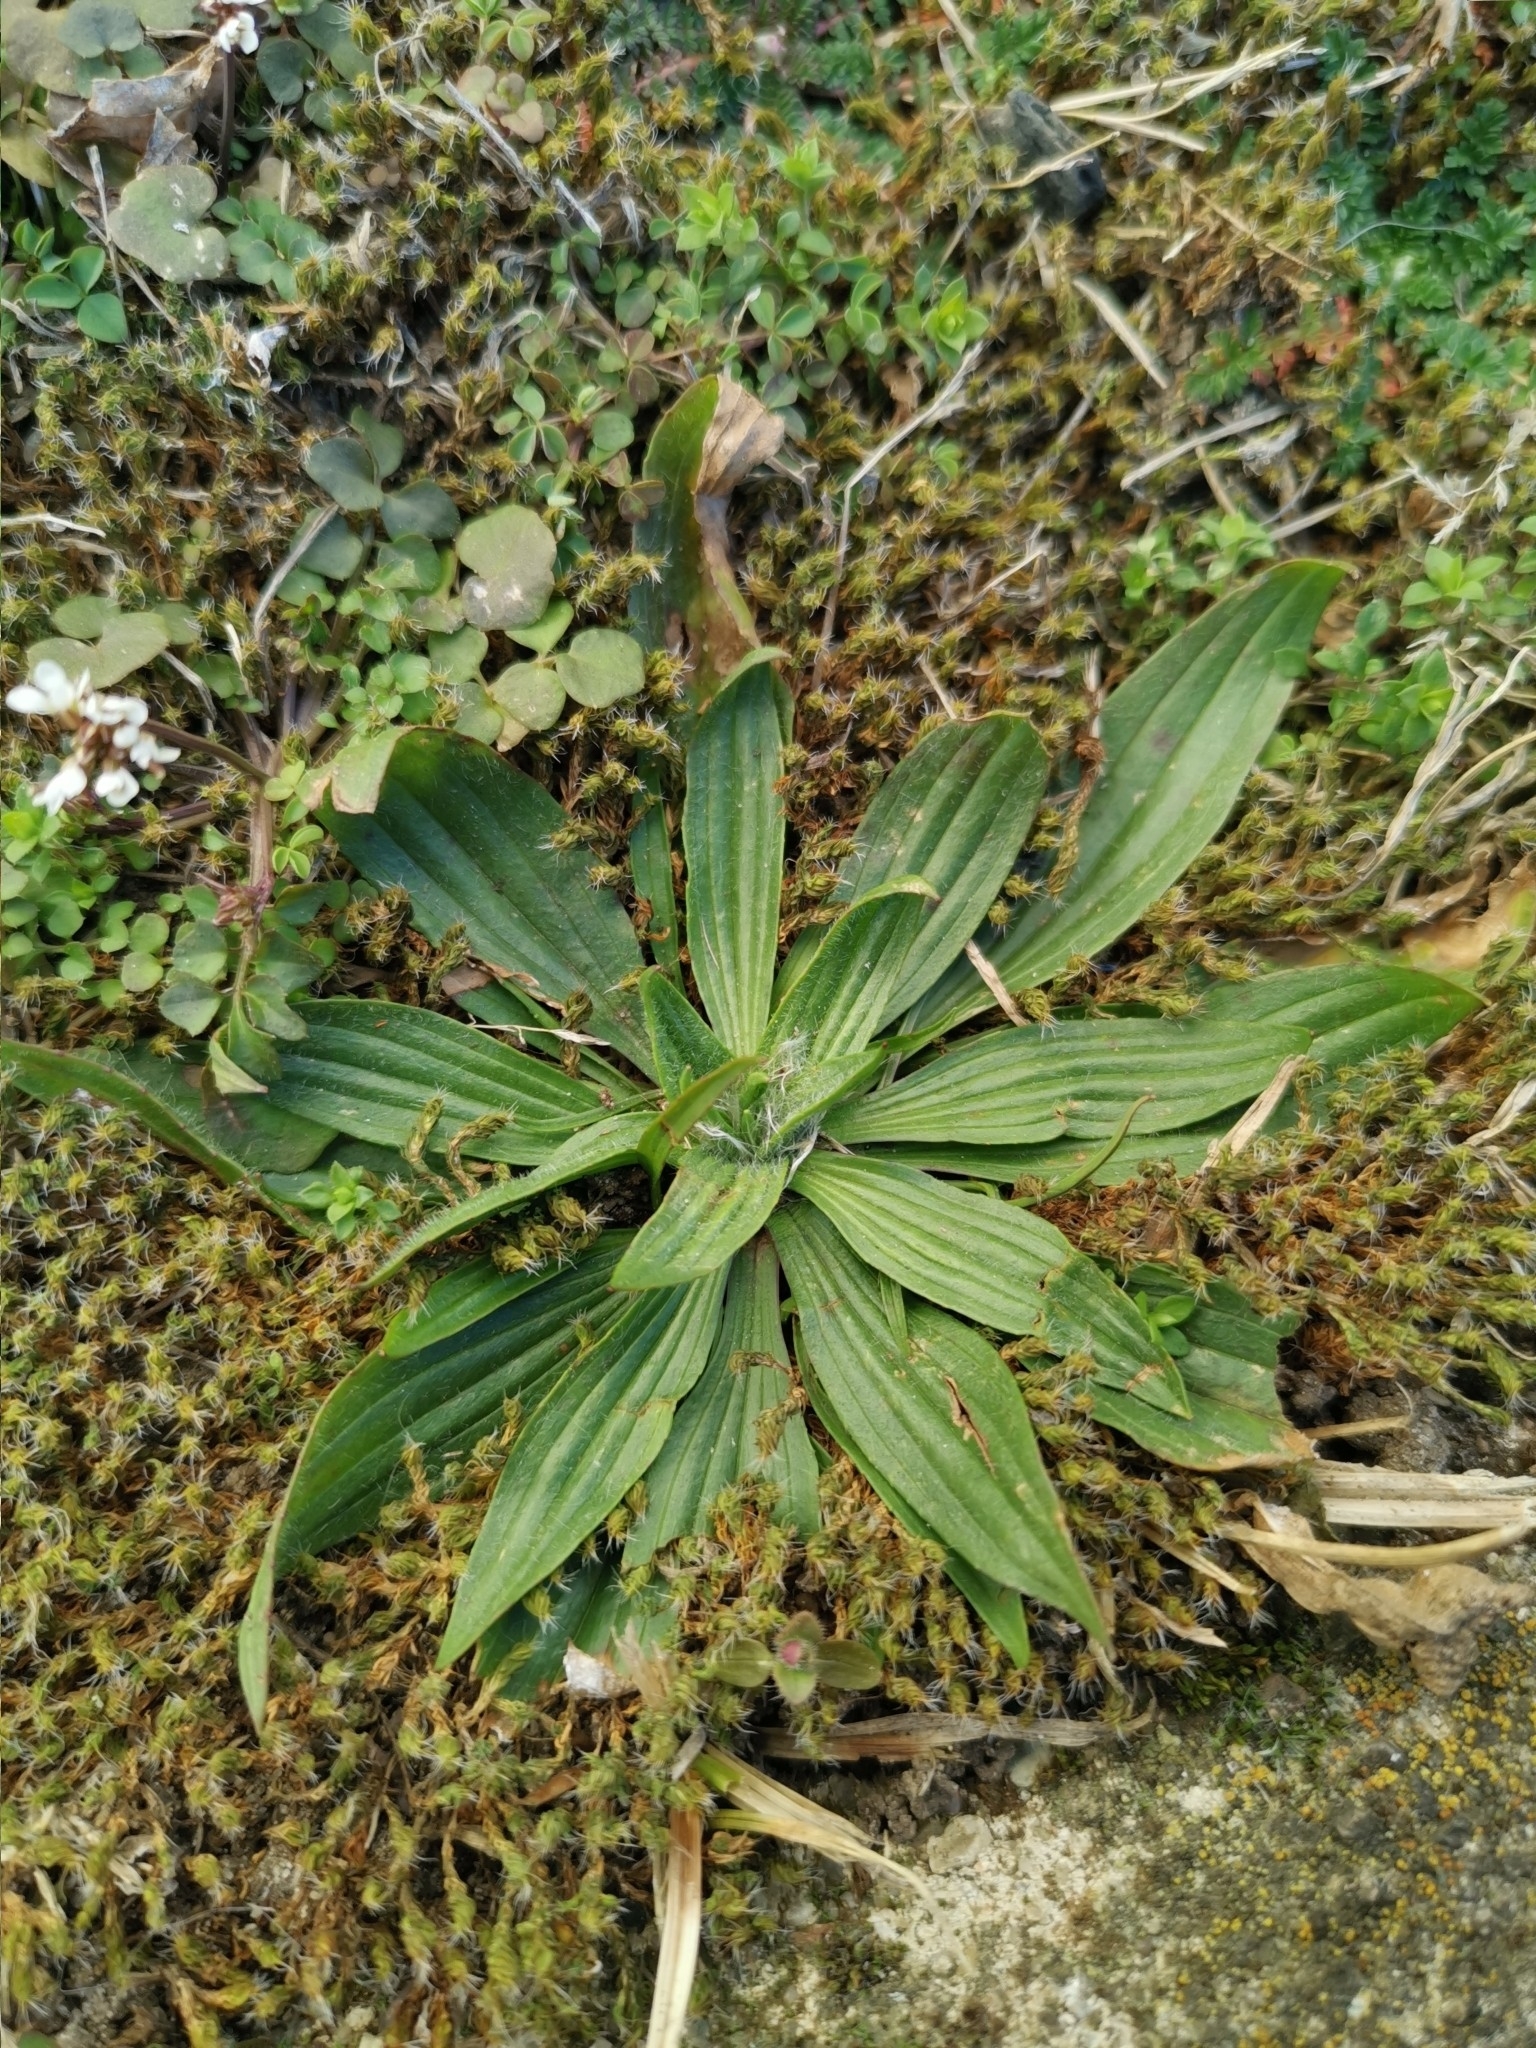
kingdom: Plantae
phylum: Tracheophyta
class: Magnoliopsida
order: Lamiales
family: Plantaginaceae
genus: Plantago
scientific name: Plantago lanceolata
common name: Ribwort plantain
